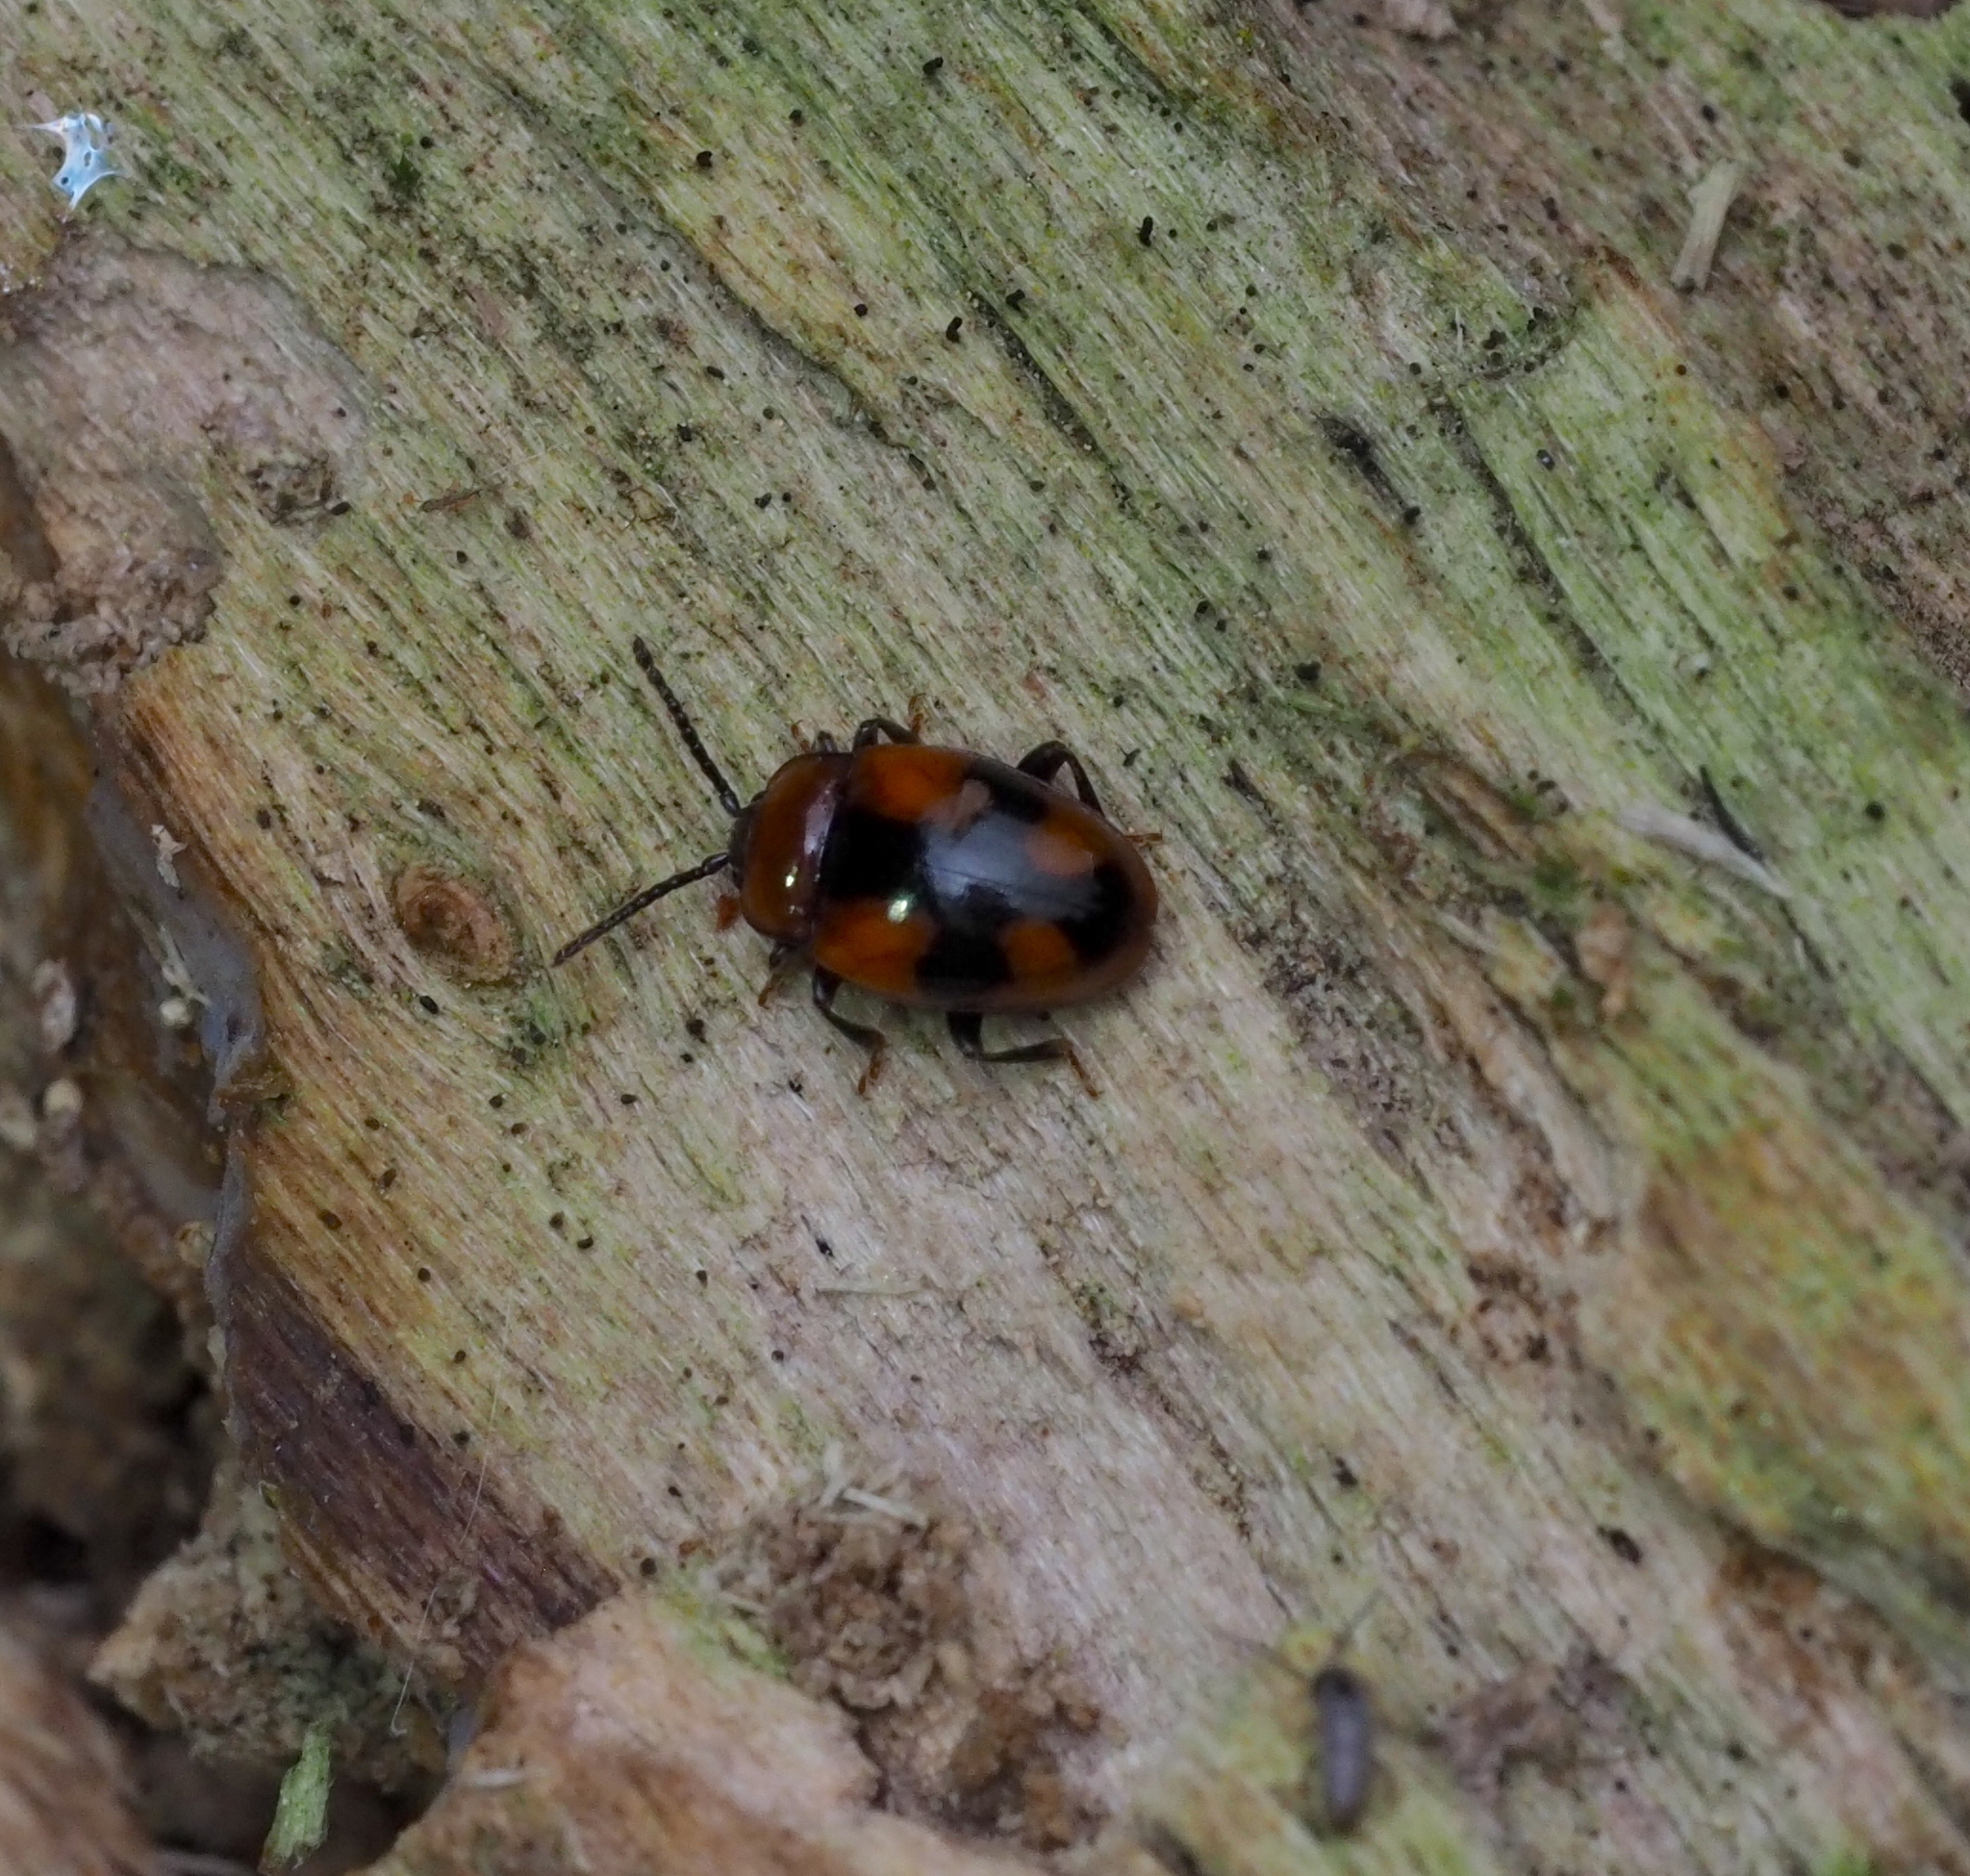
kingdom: Animalia
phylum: Arthropoda
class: Insecta
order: Coleoptera
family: Endomychidae
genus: Mycetina
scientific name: Mycetina cruciata
